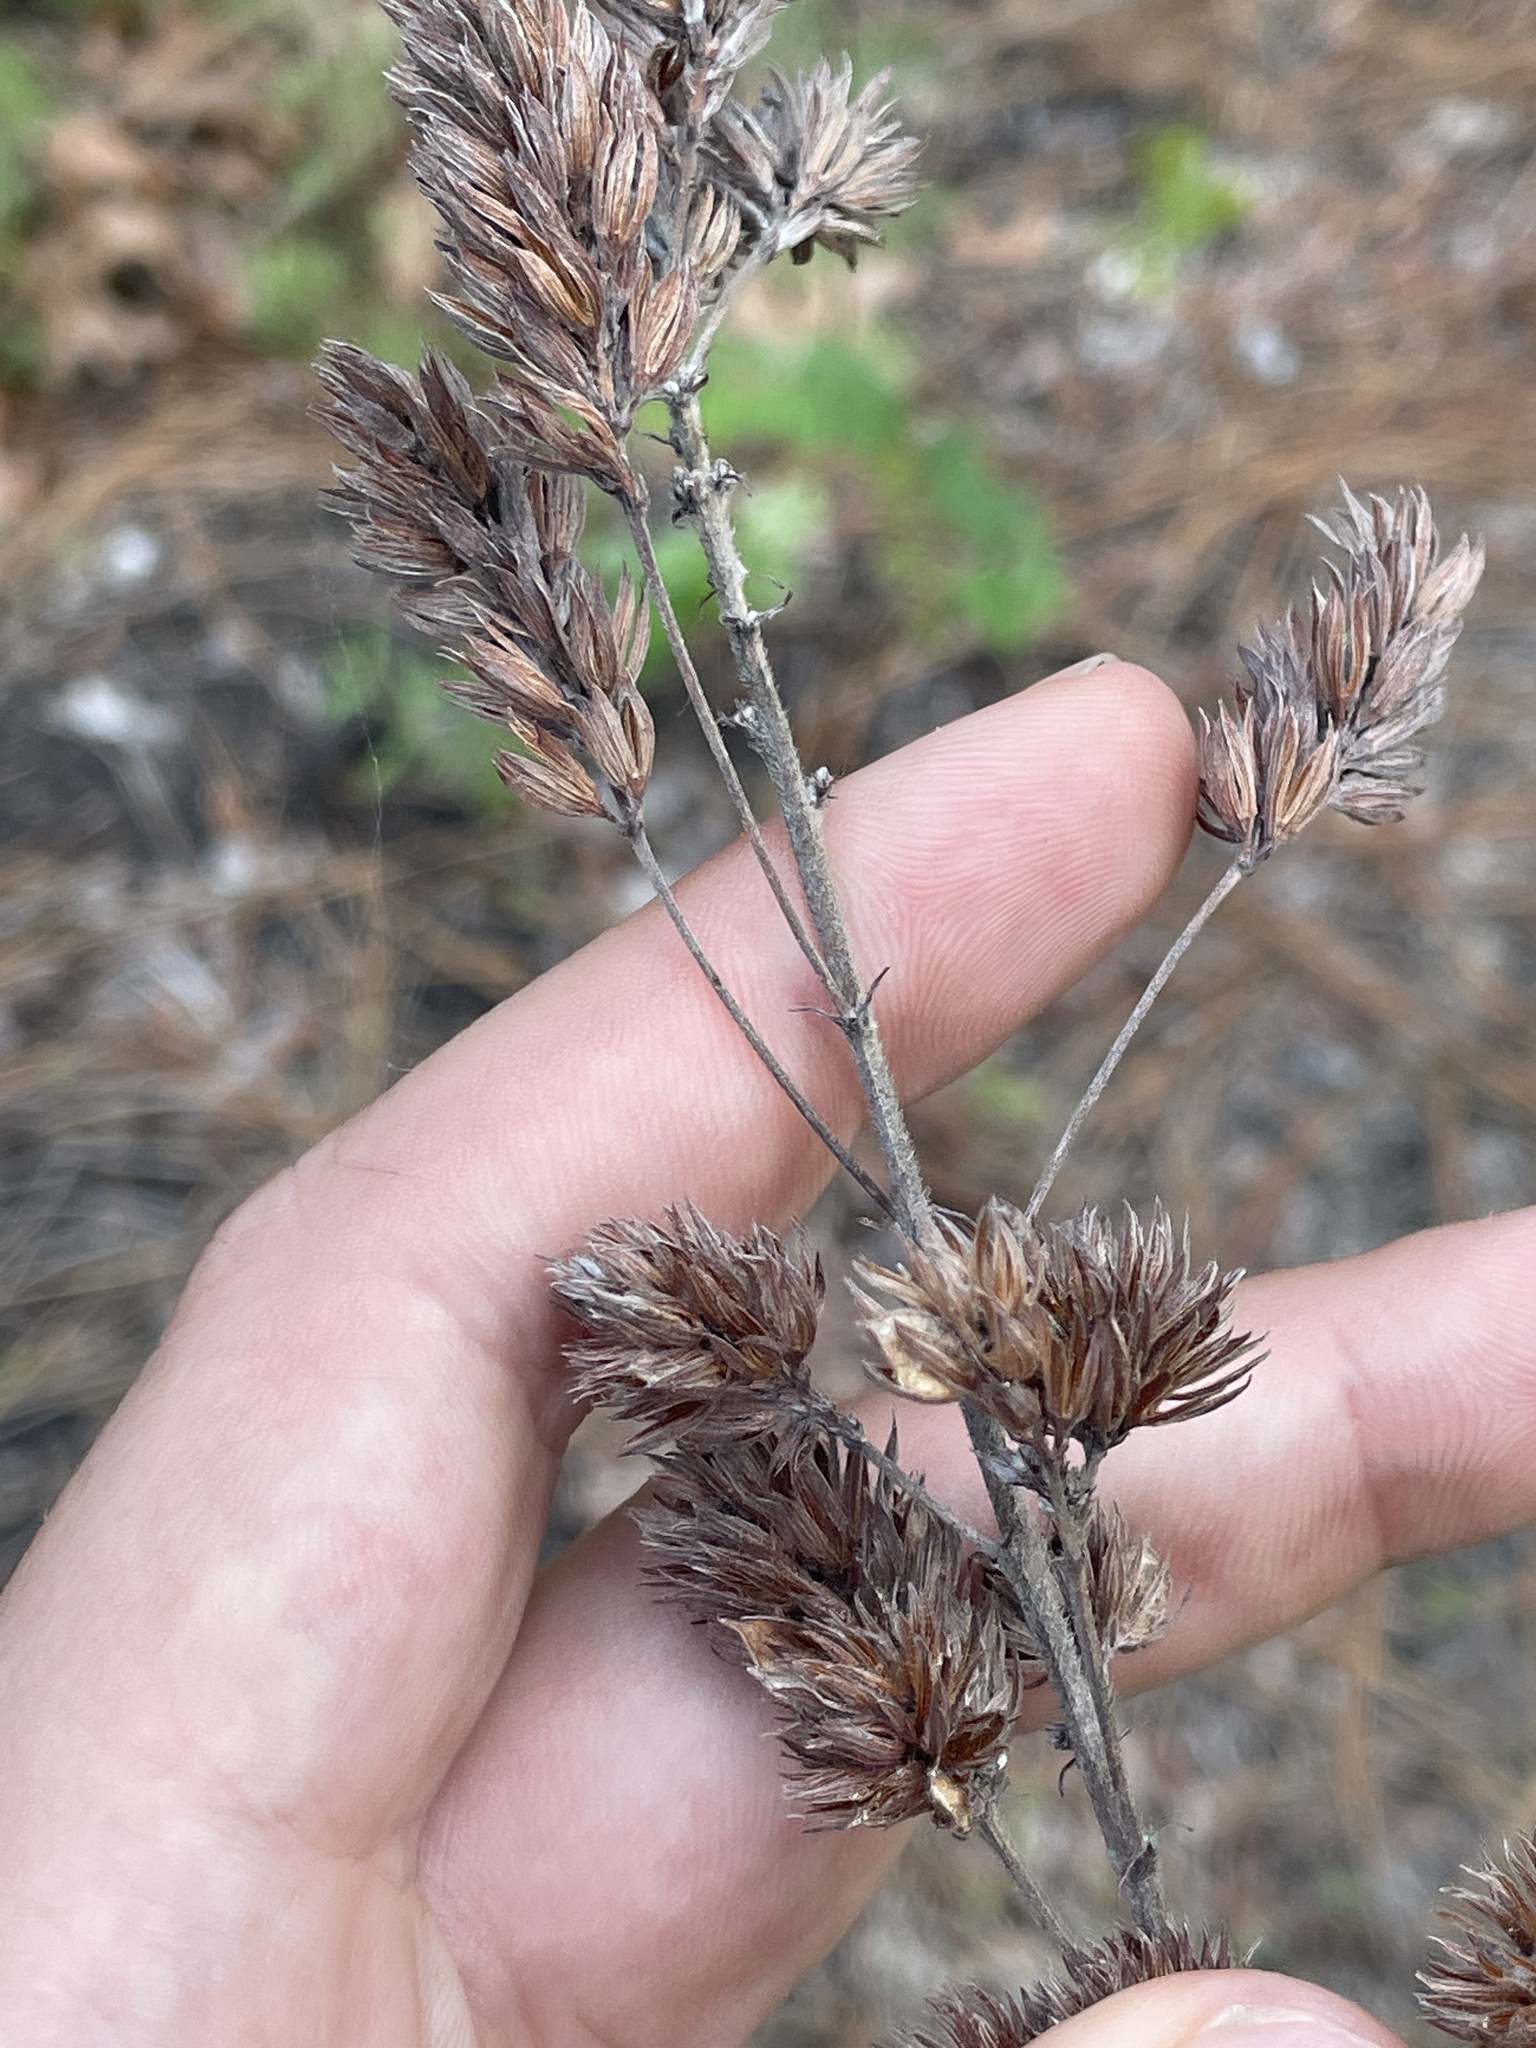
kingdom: Plantae
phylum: Tracheophyta
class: Magnoliopsida
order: Fabales
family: Fabaceae
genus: Lespedeza
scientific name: Lespedeza hirta
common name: Hairy lespedeza
